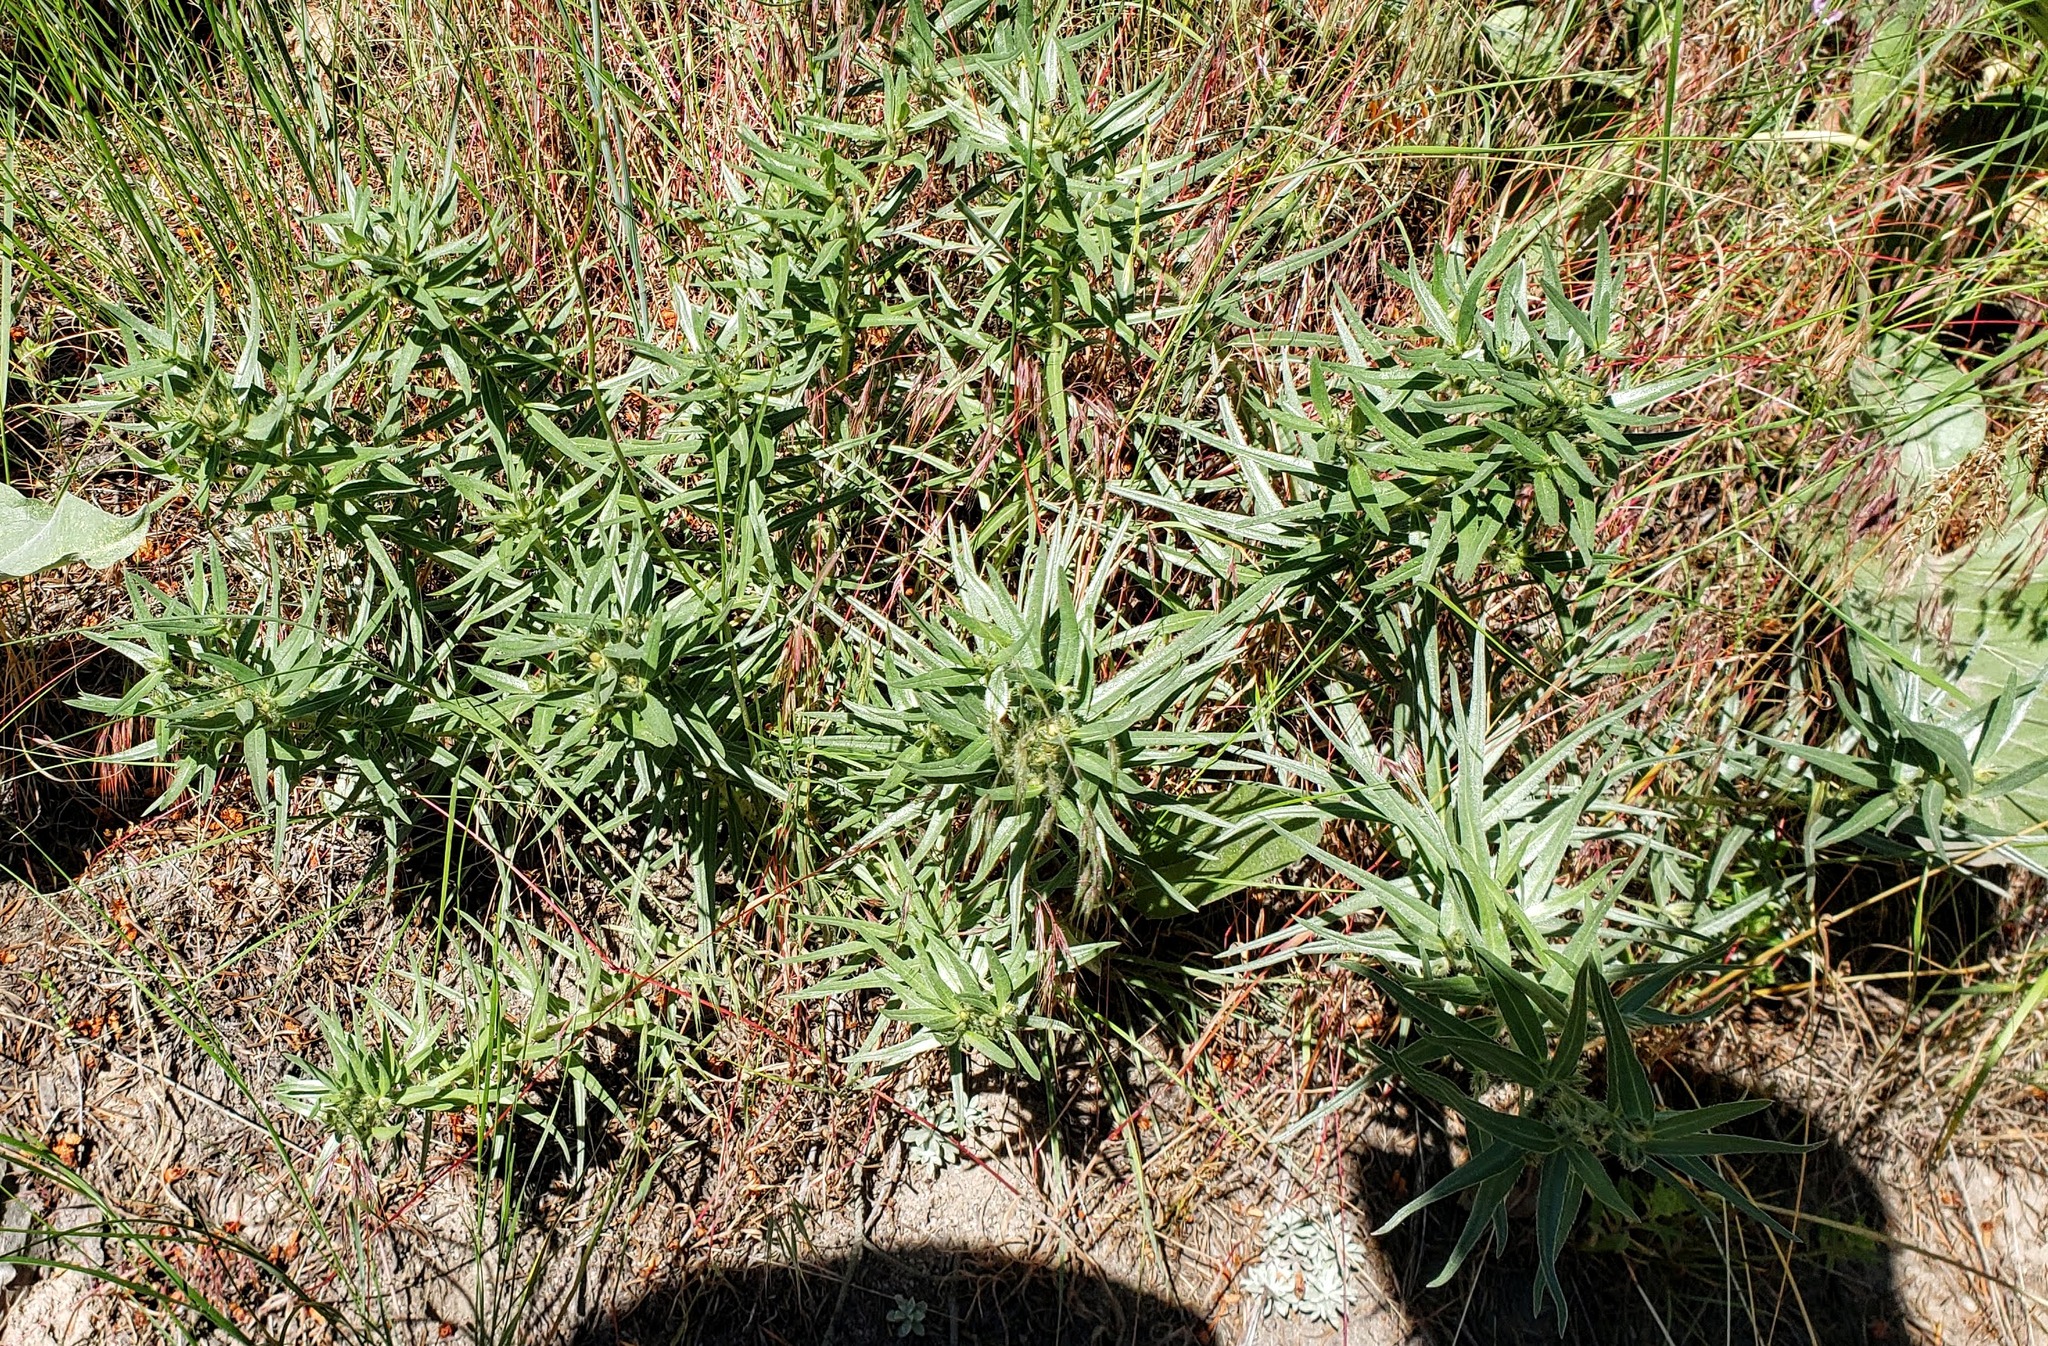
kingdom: Plantae
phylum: Tracheophyta
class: Magnoliopsida
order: Boraginales
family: Boraginaceae
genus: Lithospermum
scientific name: Lithospermum ruderale
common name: Western gromwell
